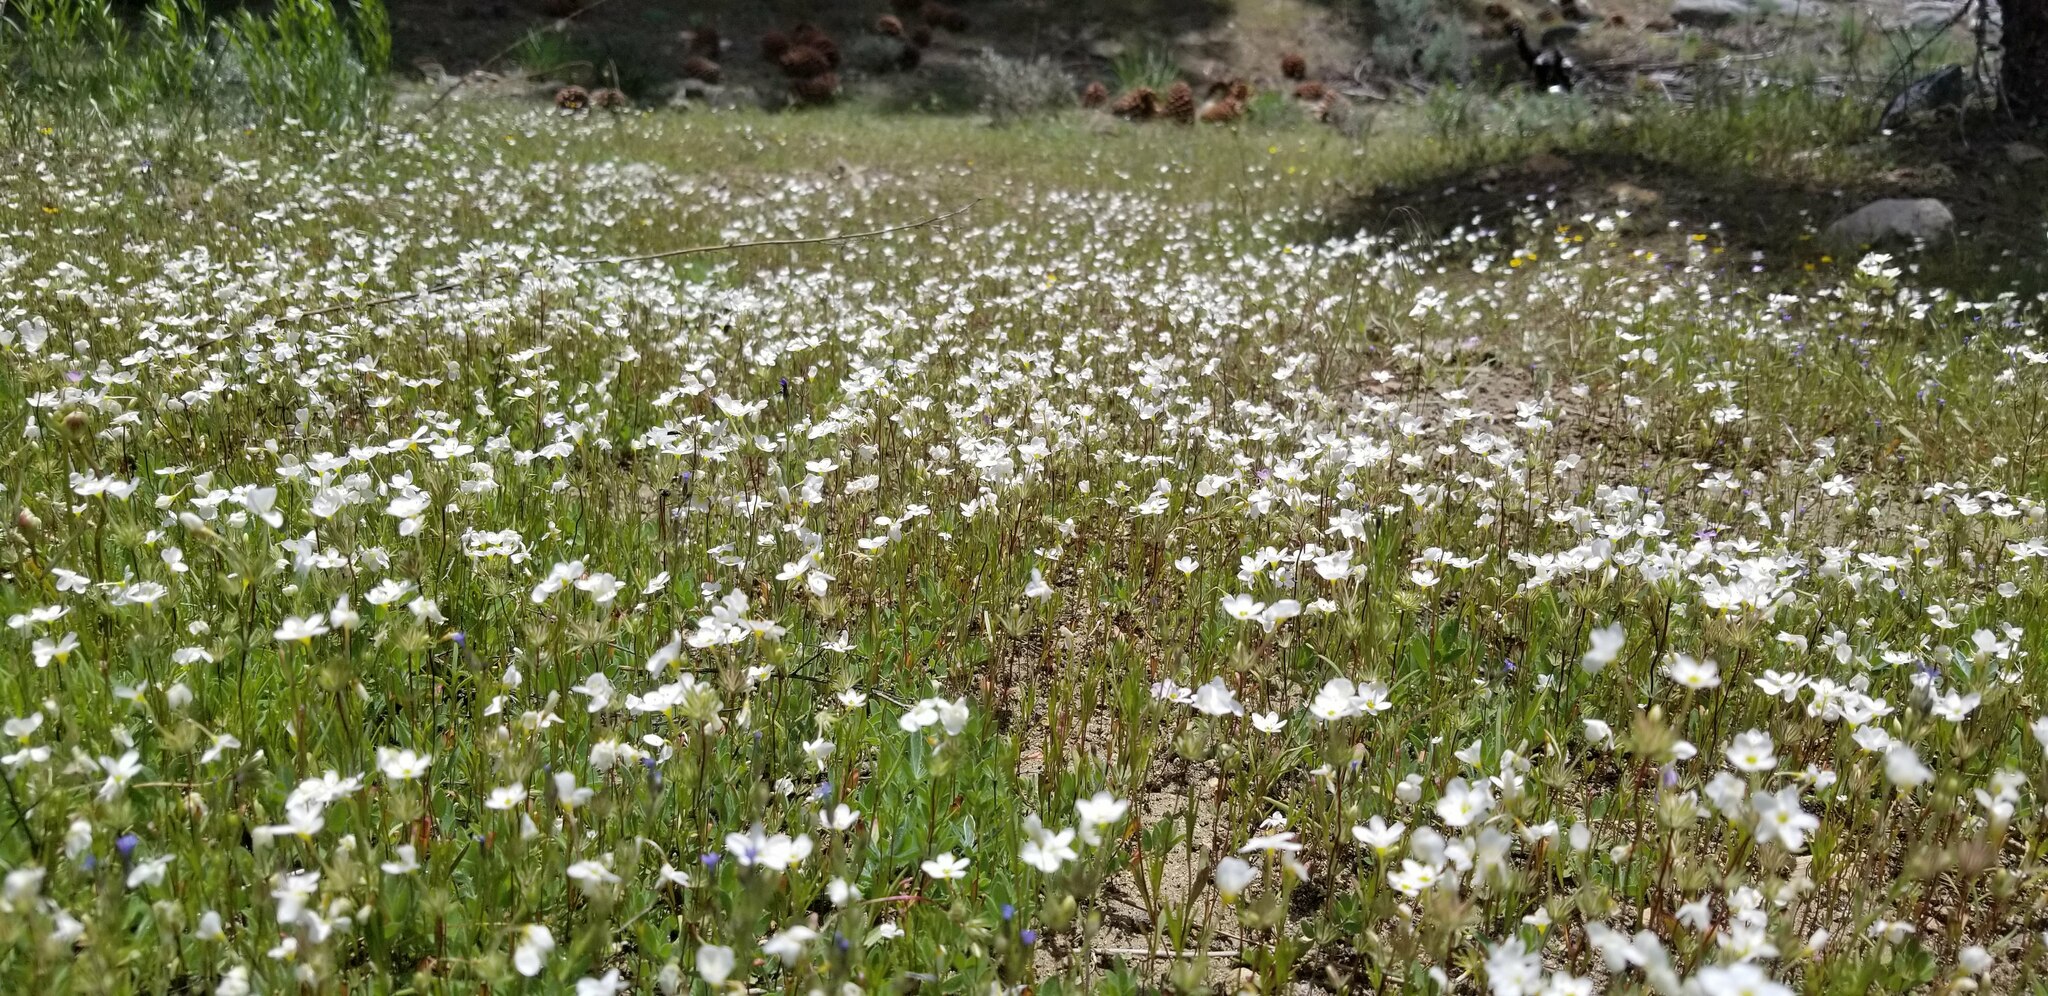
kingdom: Plantae
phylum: Tracheophyta
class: Magnoliopsida
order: Ericales
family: Polemoniaceae
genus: Leptosiphon
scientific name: Leptosiphon nudatus
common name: Tehachapi linanthus
